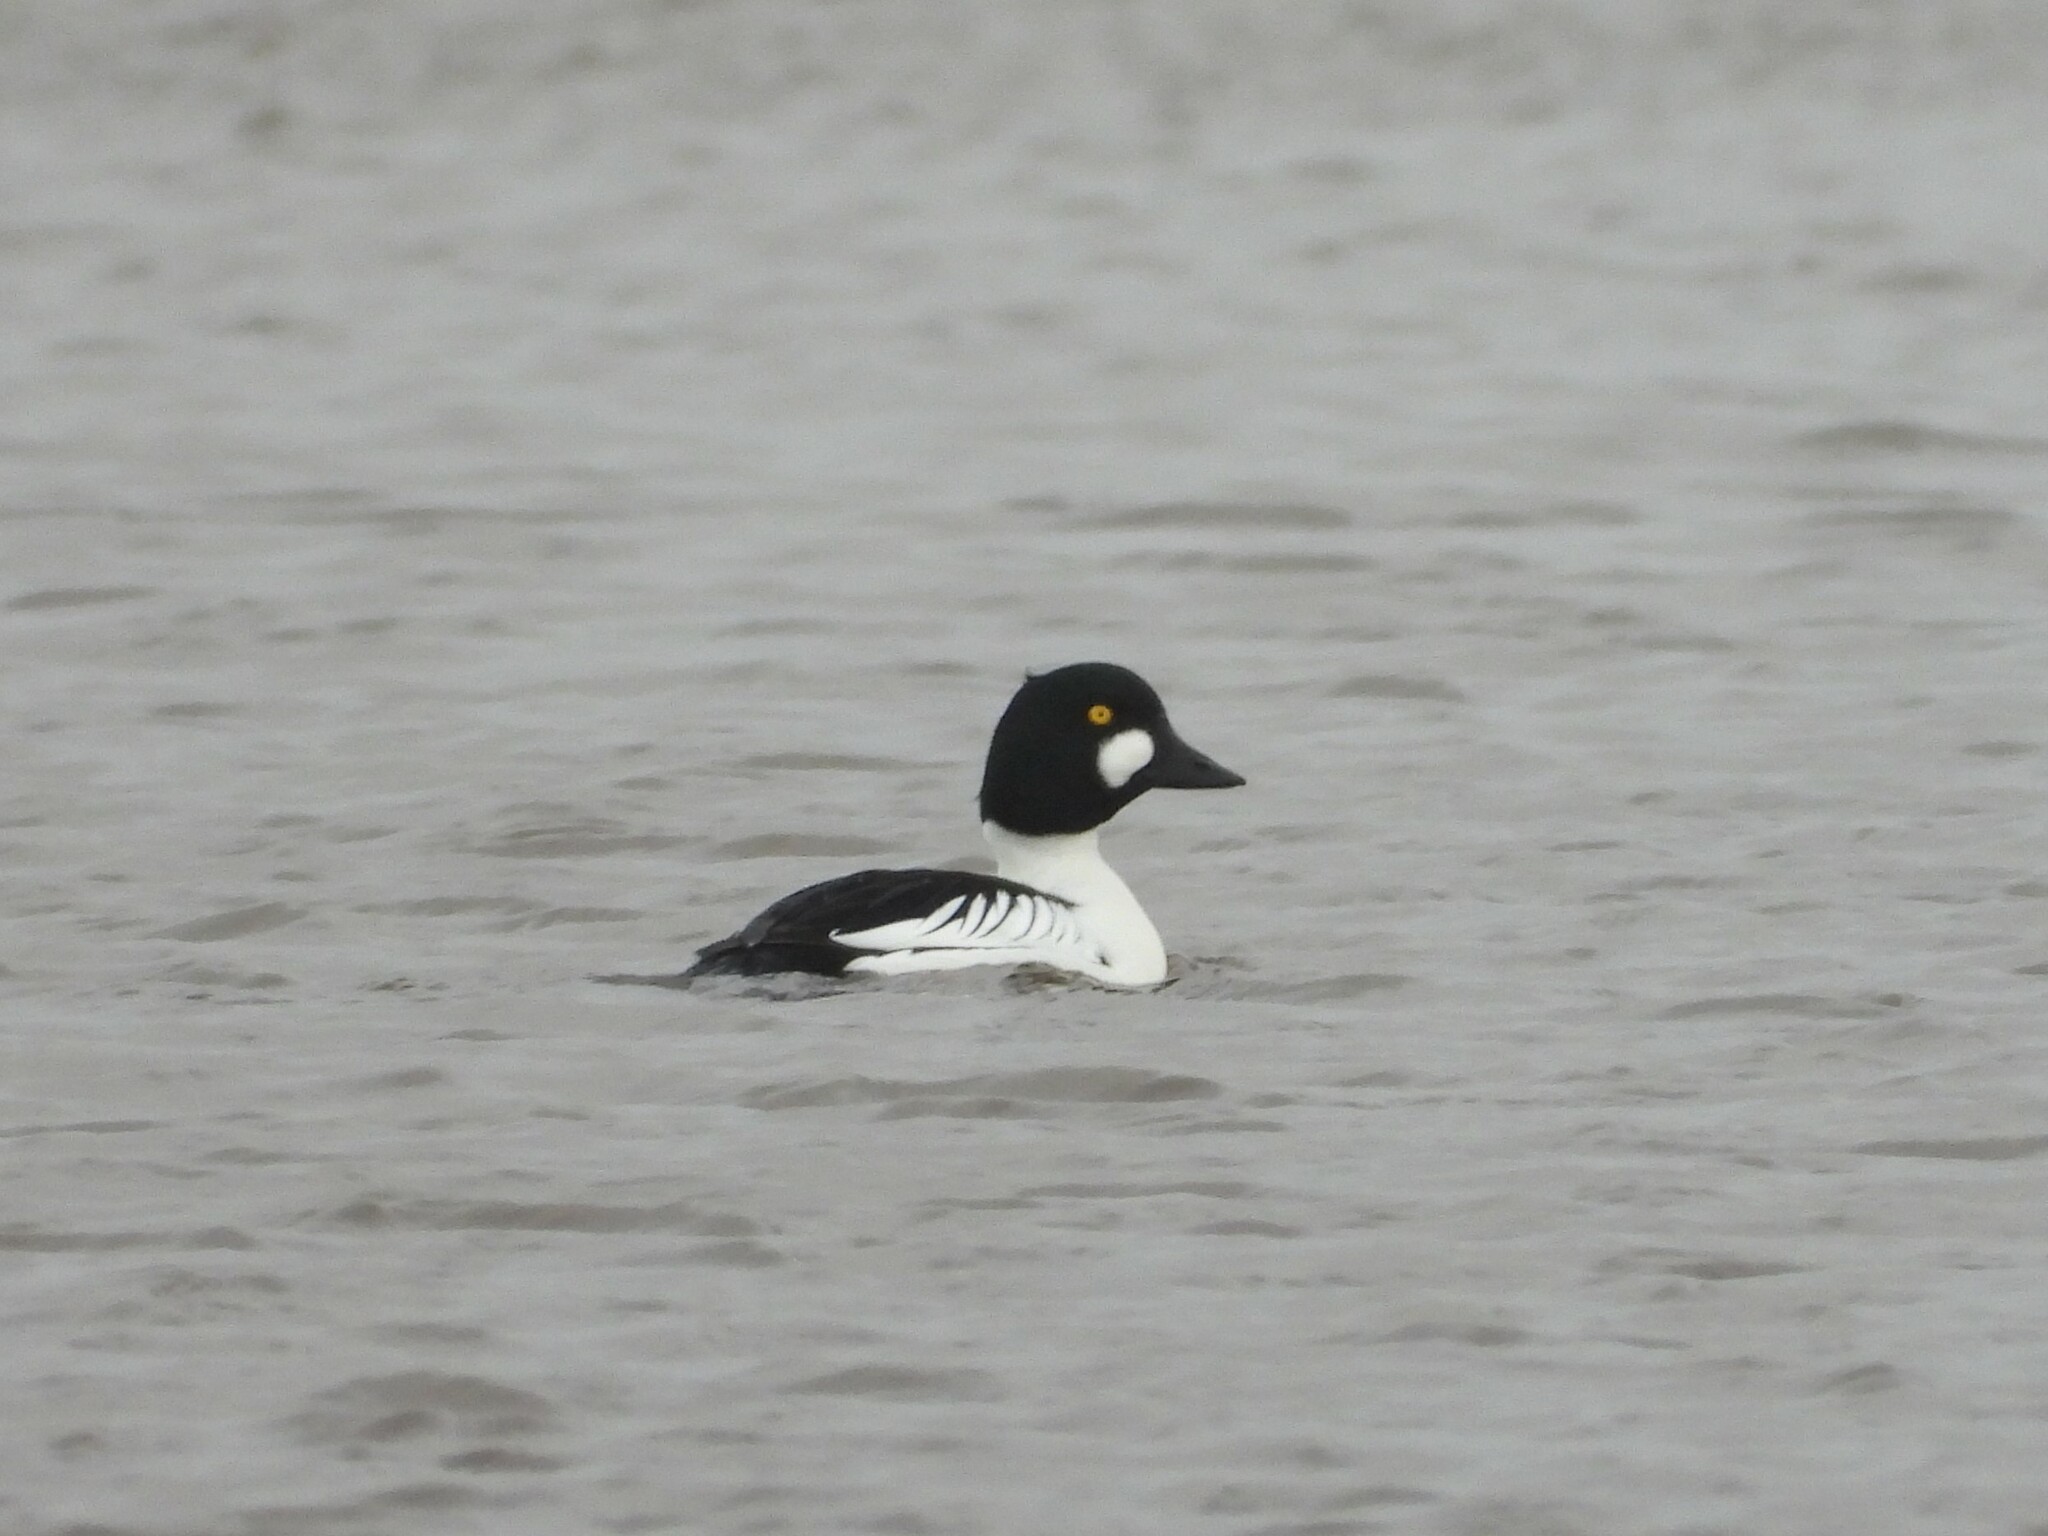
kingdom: Animalia
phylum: Chordata
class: Aves
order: Anseriformes
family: Anatidae
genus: Bucephala
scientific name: Bucephala clangula
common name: Common goldeneye
